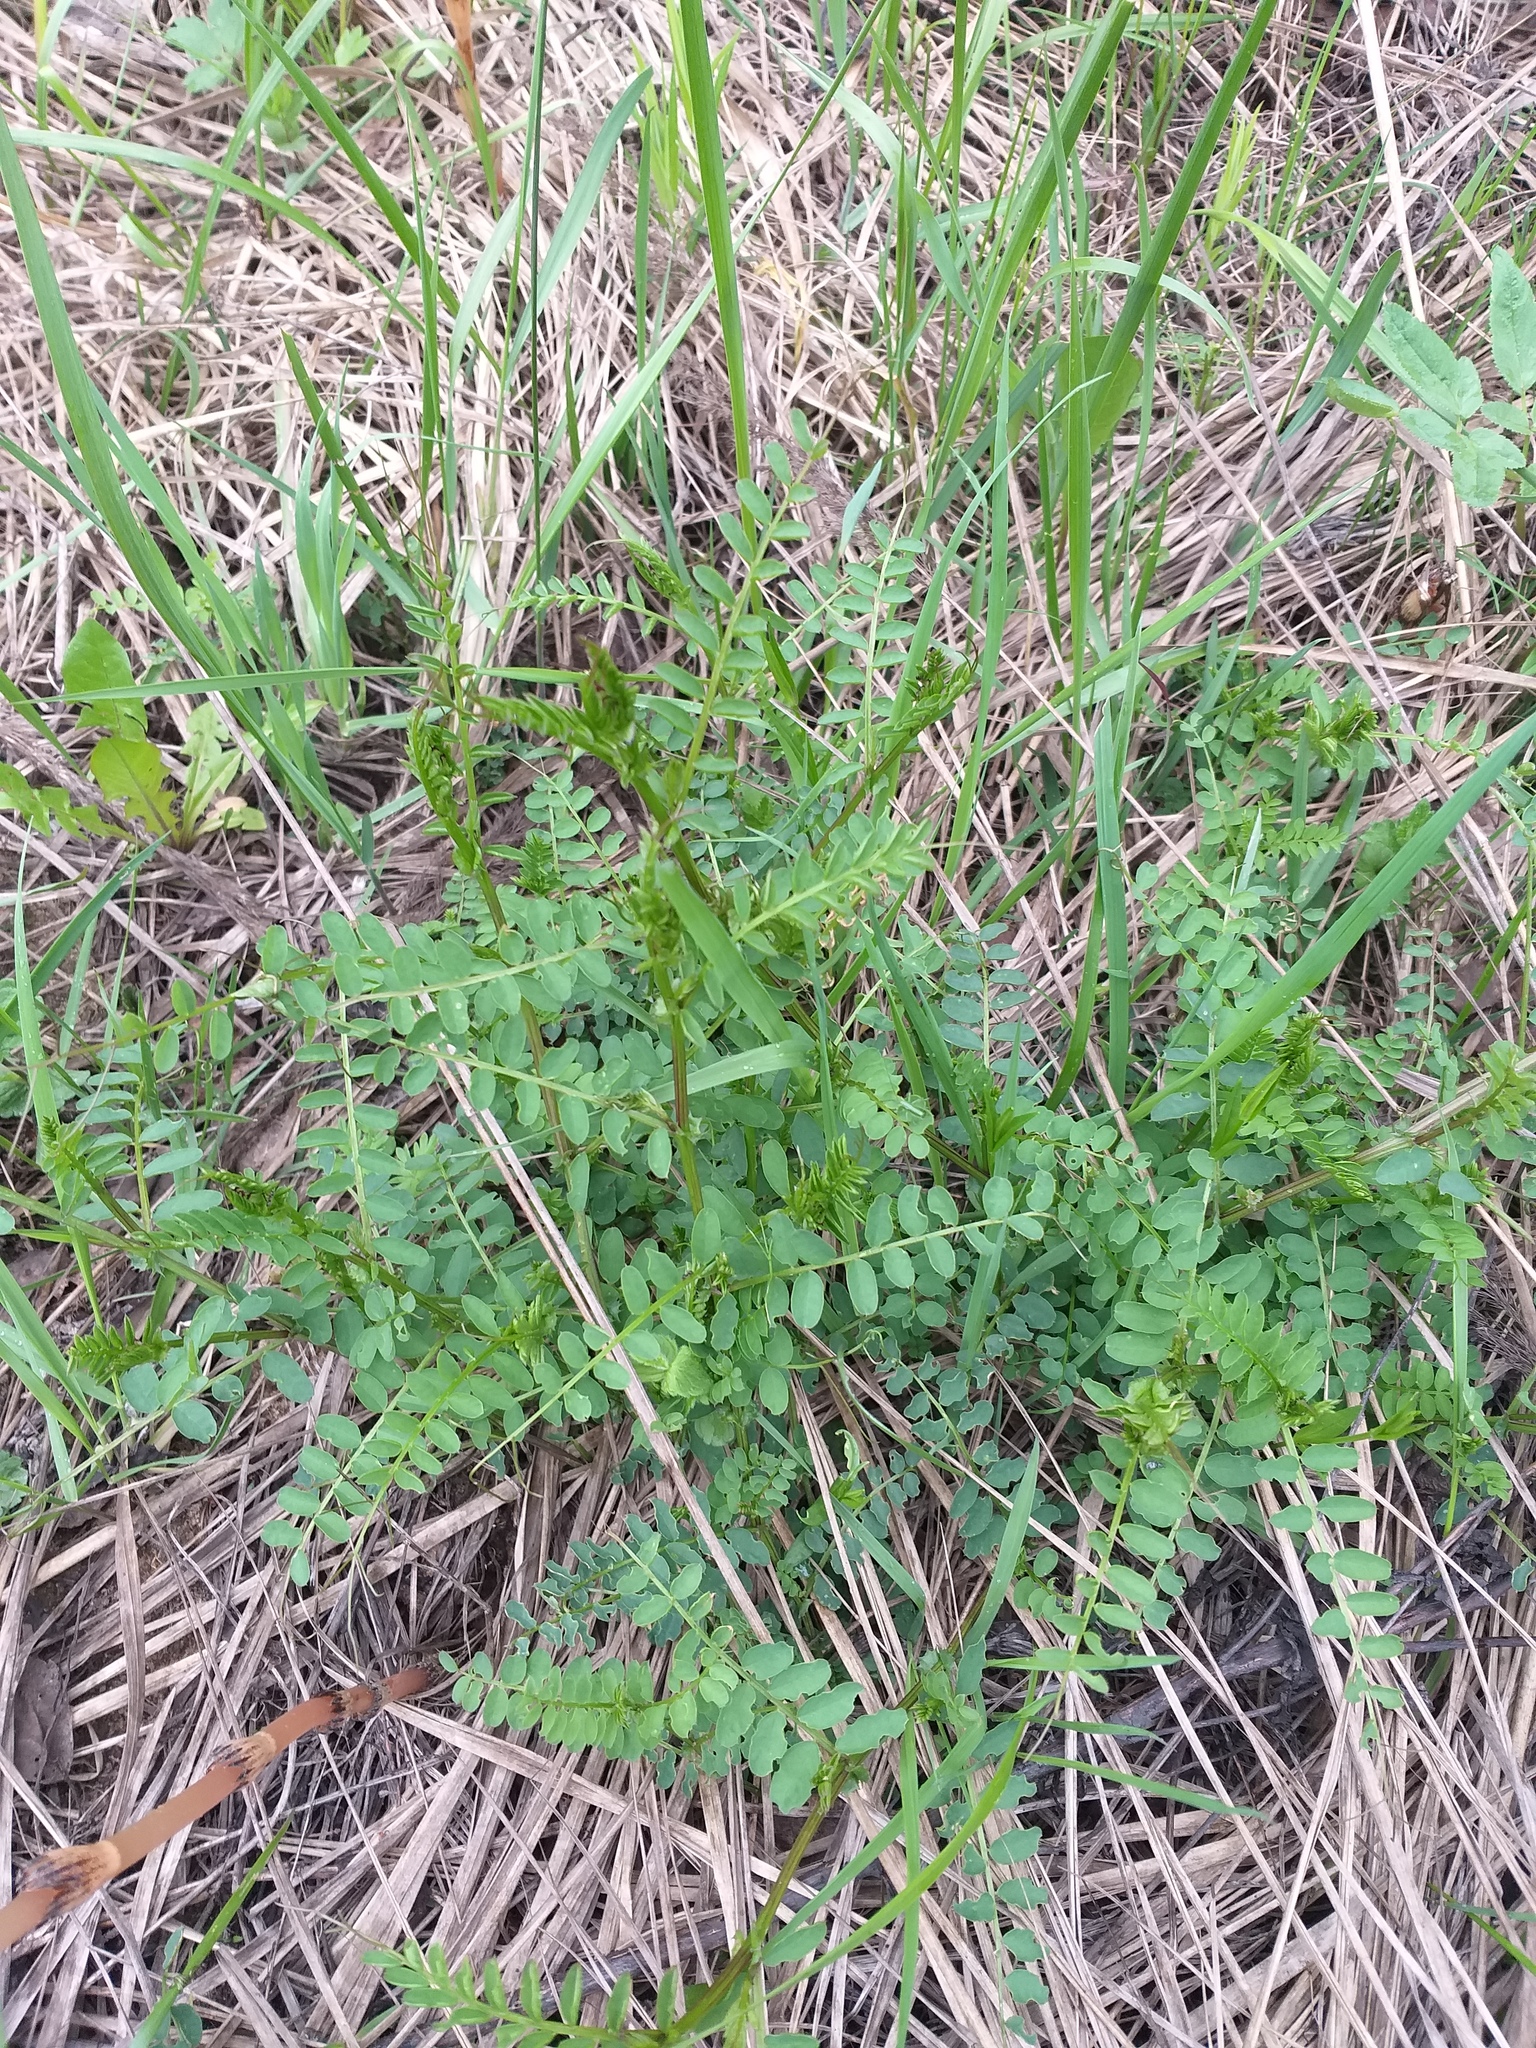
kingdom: Plantae
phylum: Tracheophyta
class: Magnoliopsida
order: Fabales
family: Fabaceae
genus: Vicia
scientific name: Vicia sylvatica
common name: Wood vetch
